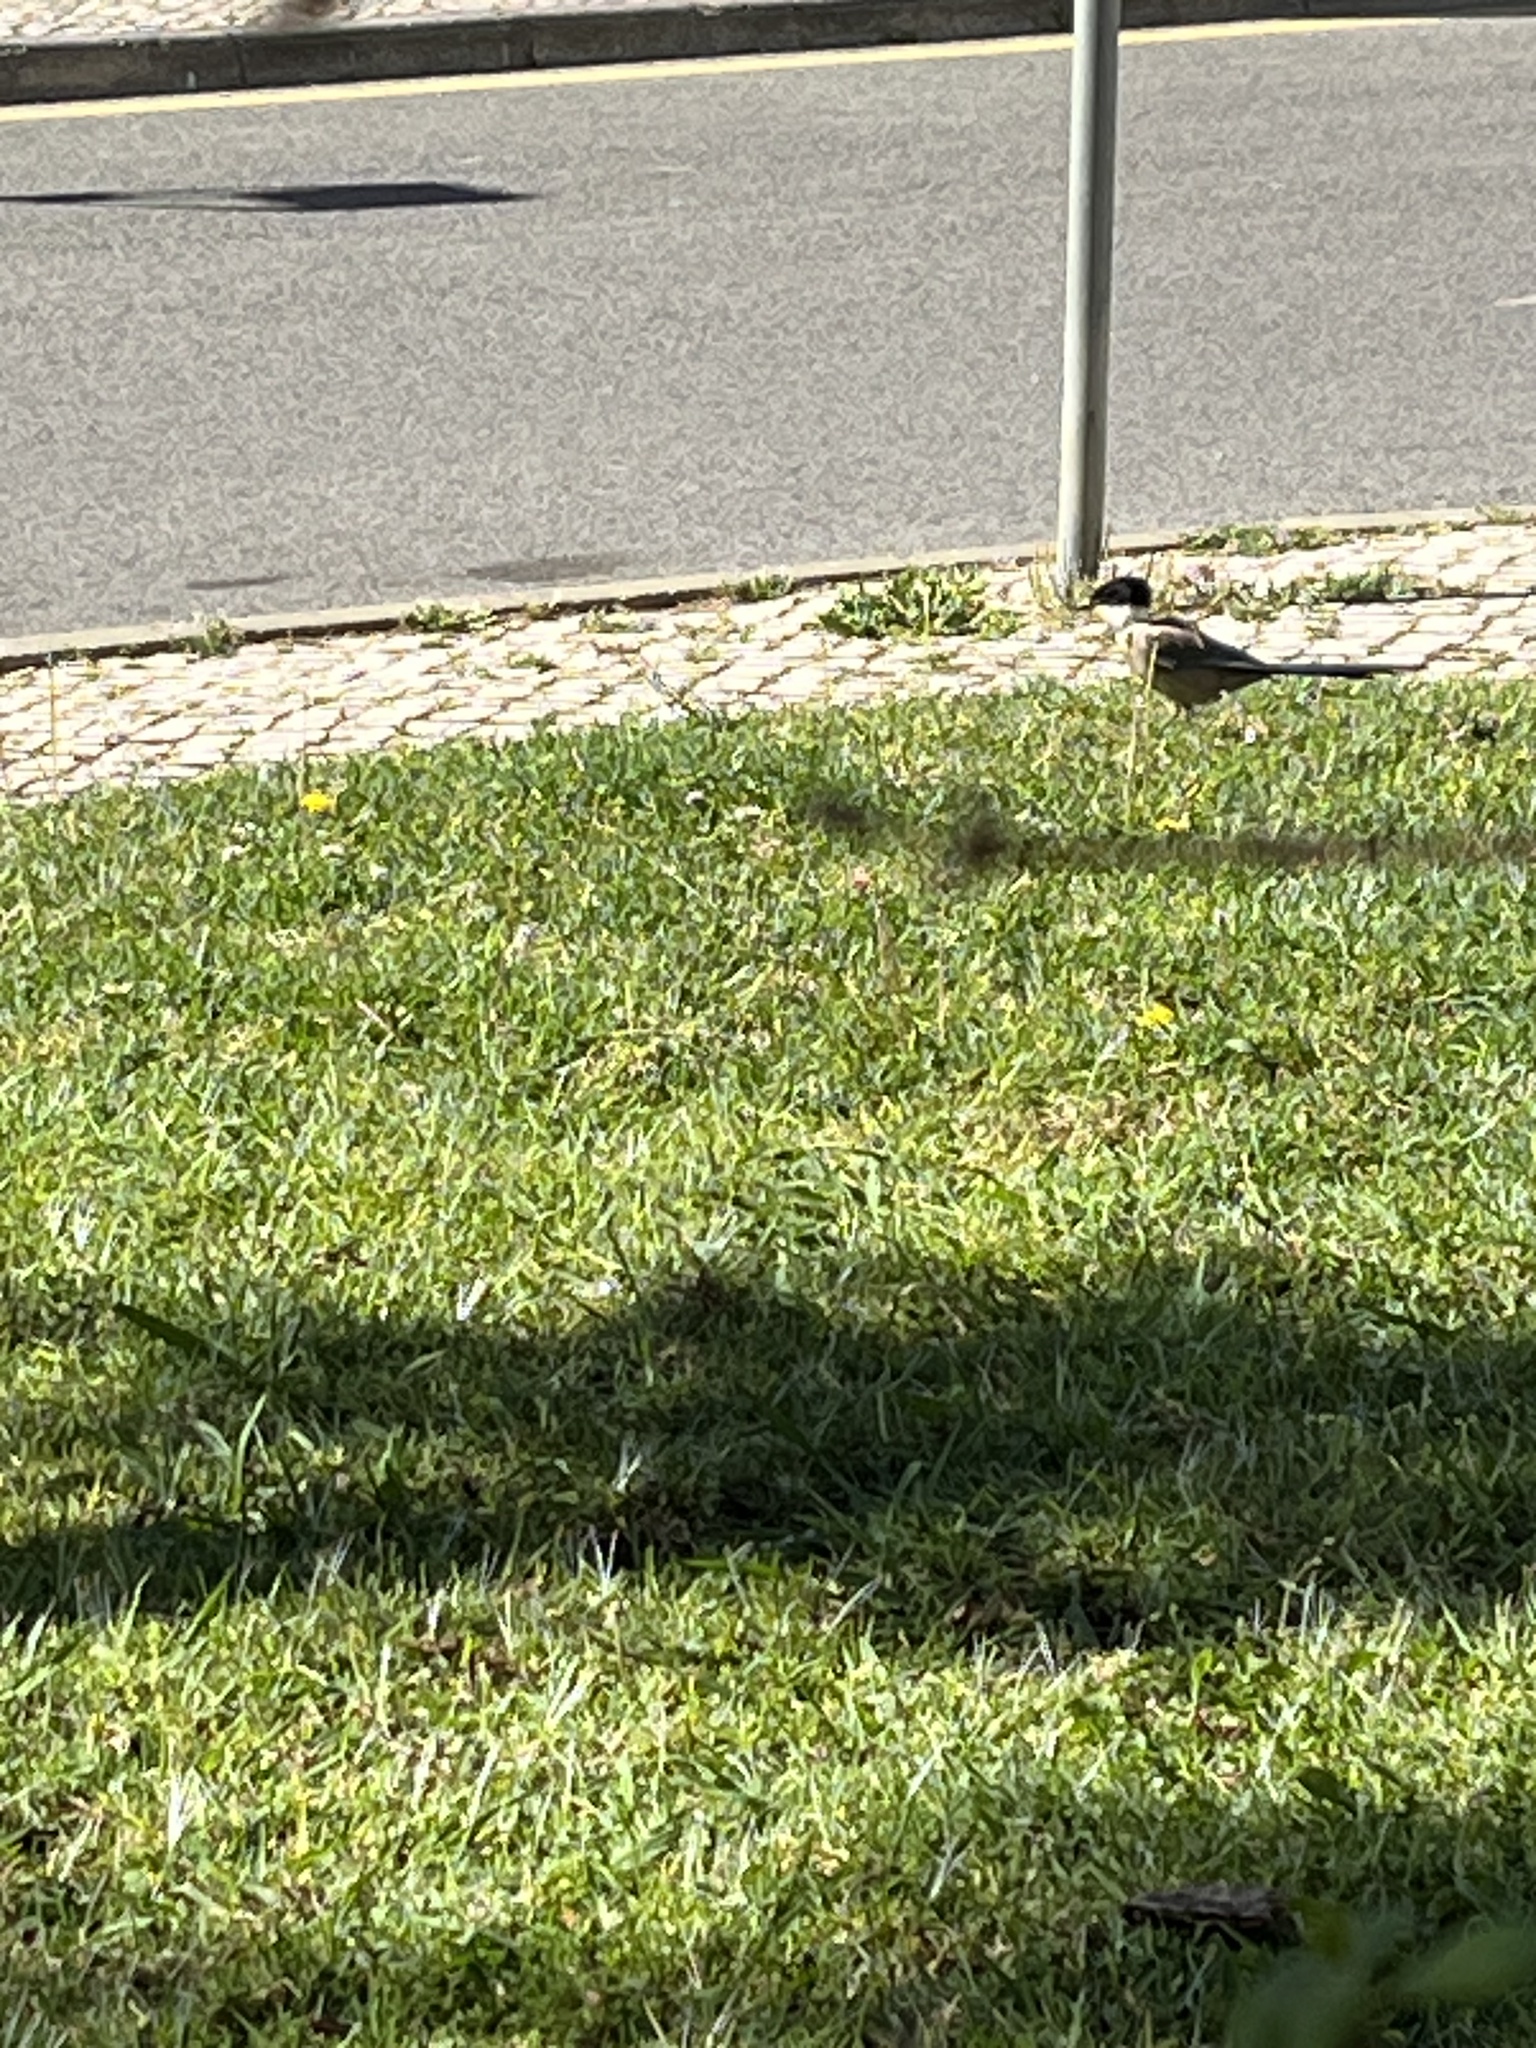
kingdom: Animalia
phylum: Chordata
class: Aves
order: Passeriformes
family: Corvidae
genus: Cyanopica
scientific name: Cyanopica cooki
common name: Iberian magpie
